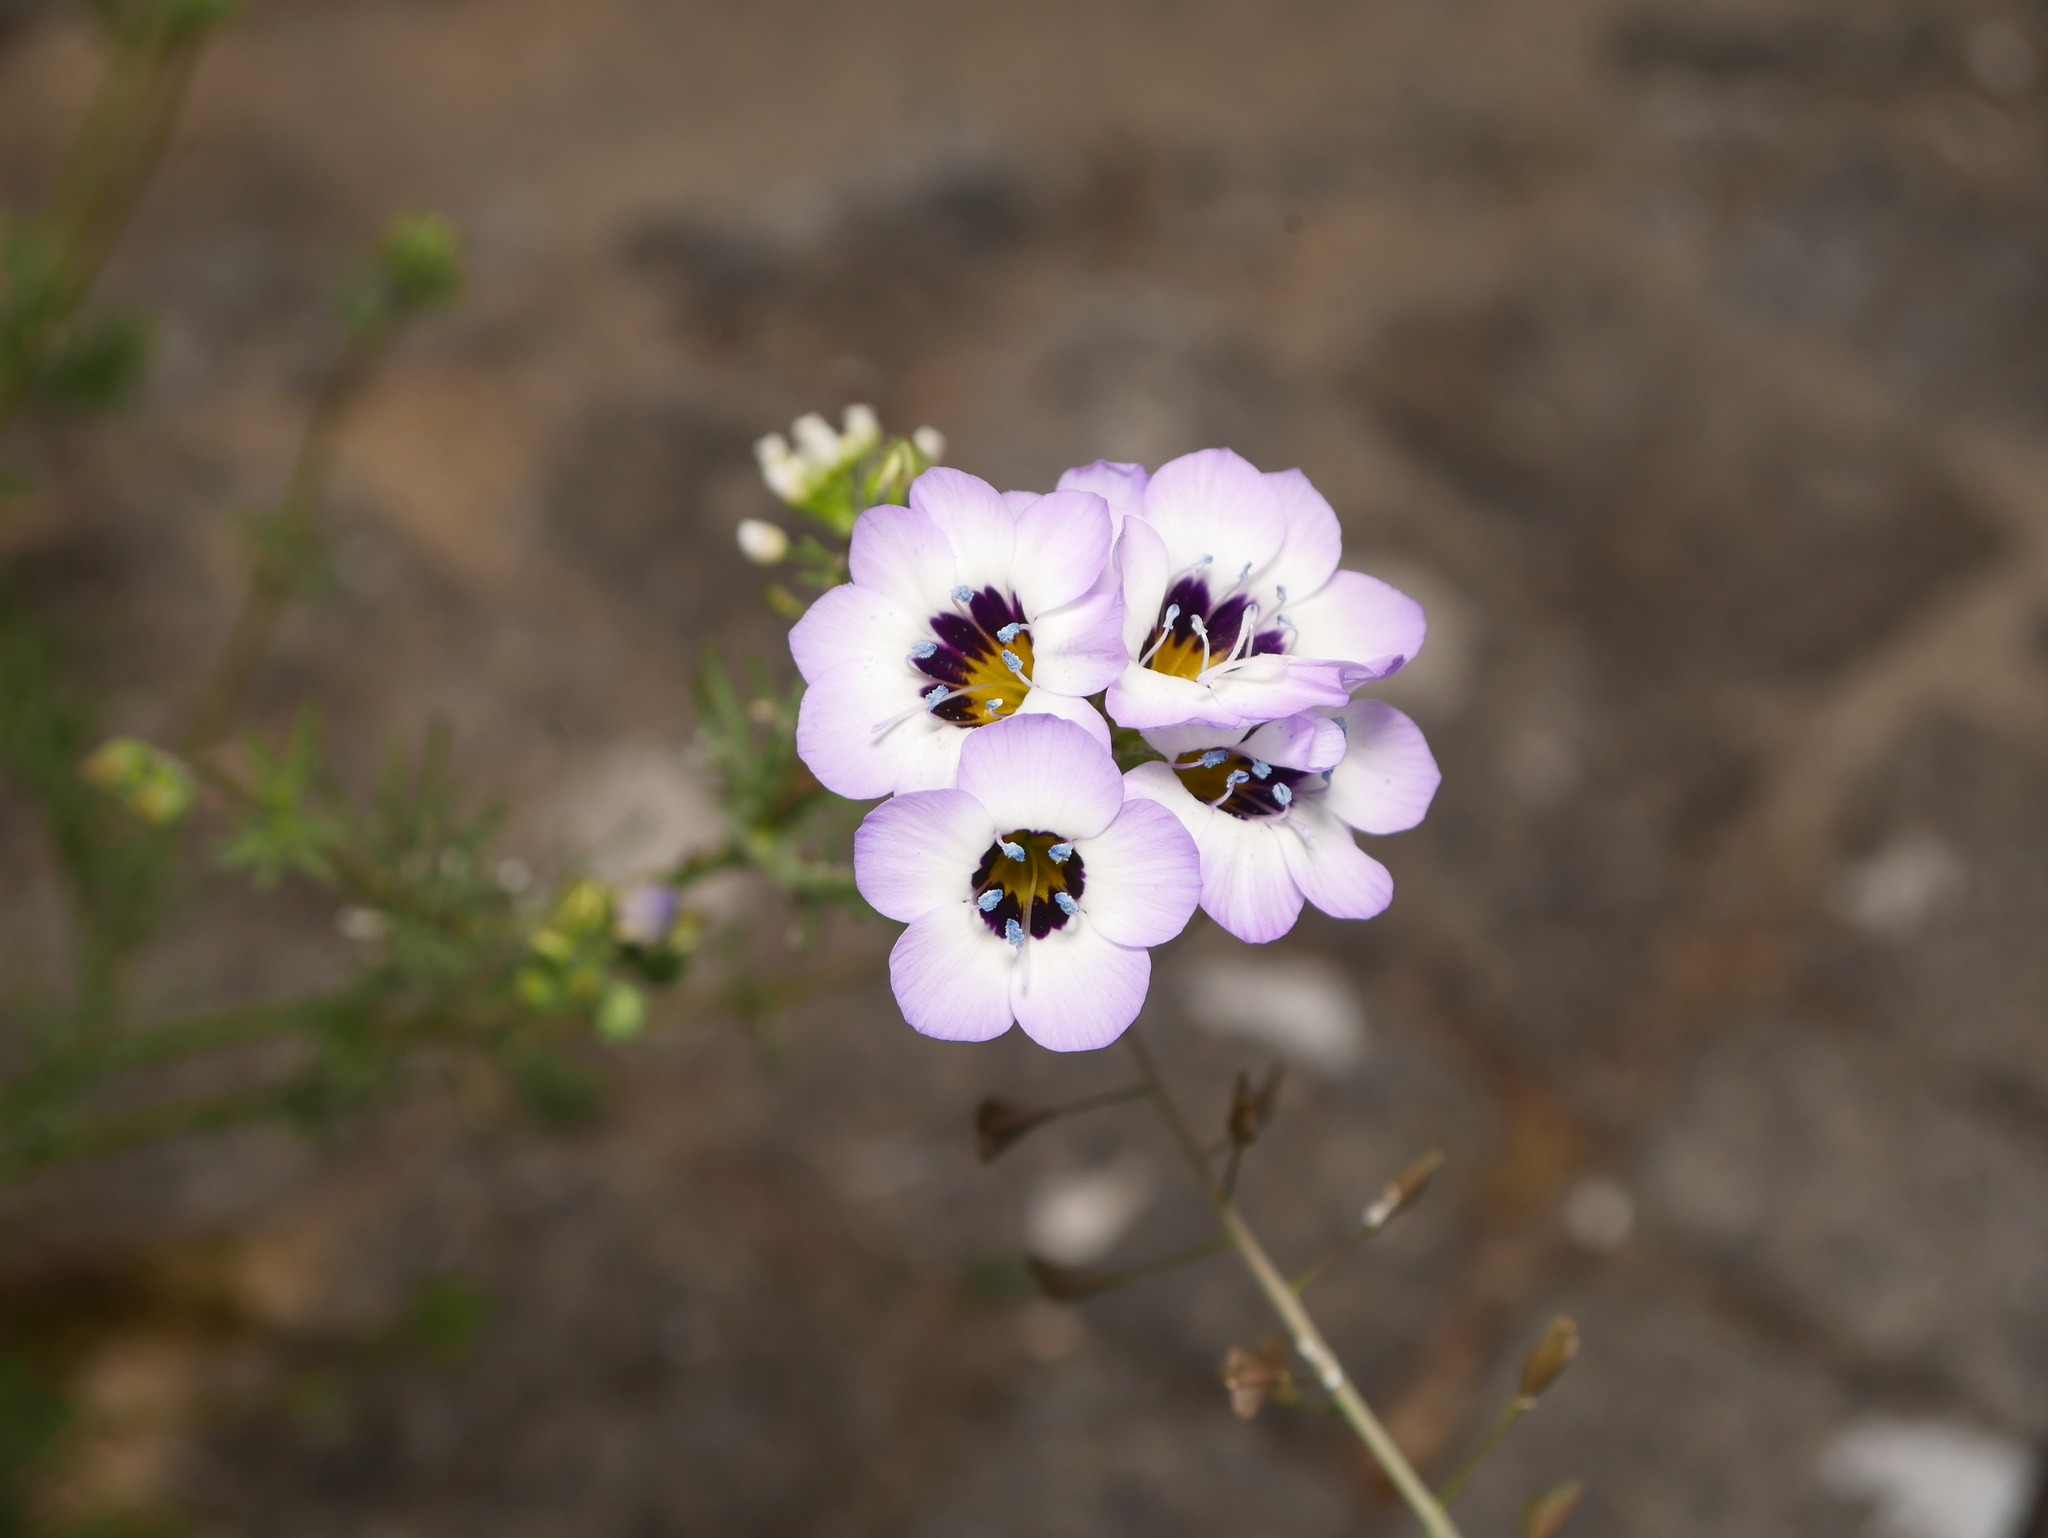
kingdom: Plantae
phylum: Tracheophyta
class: Magnoliopsida
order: Ericales
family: Polemoniaceae
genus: Gilia
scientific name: Gilia tricolor
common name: Bird's-eyes
